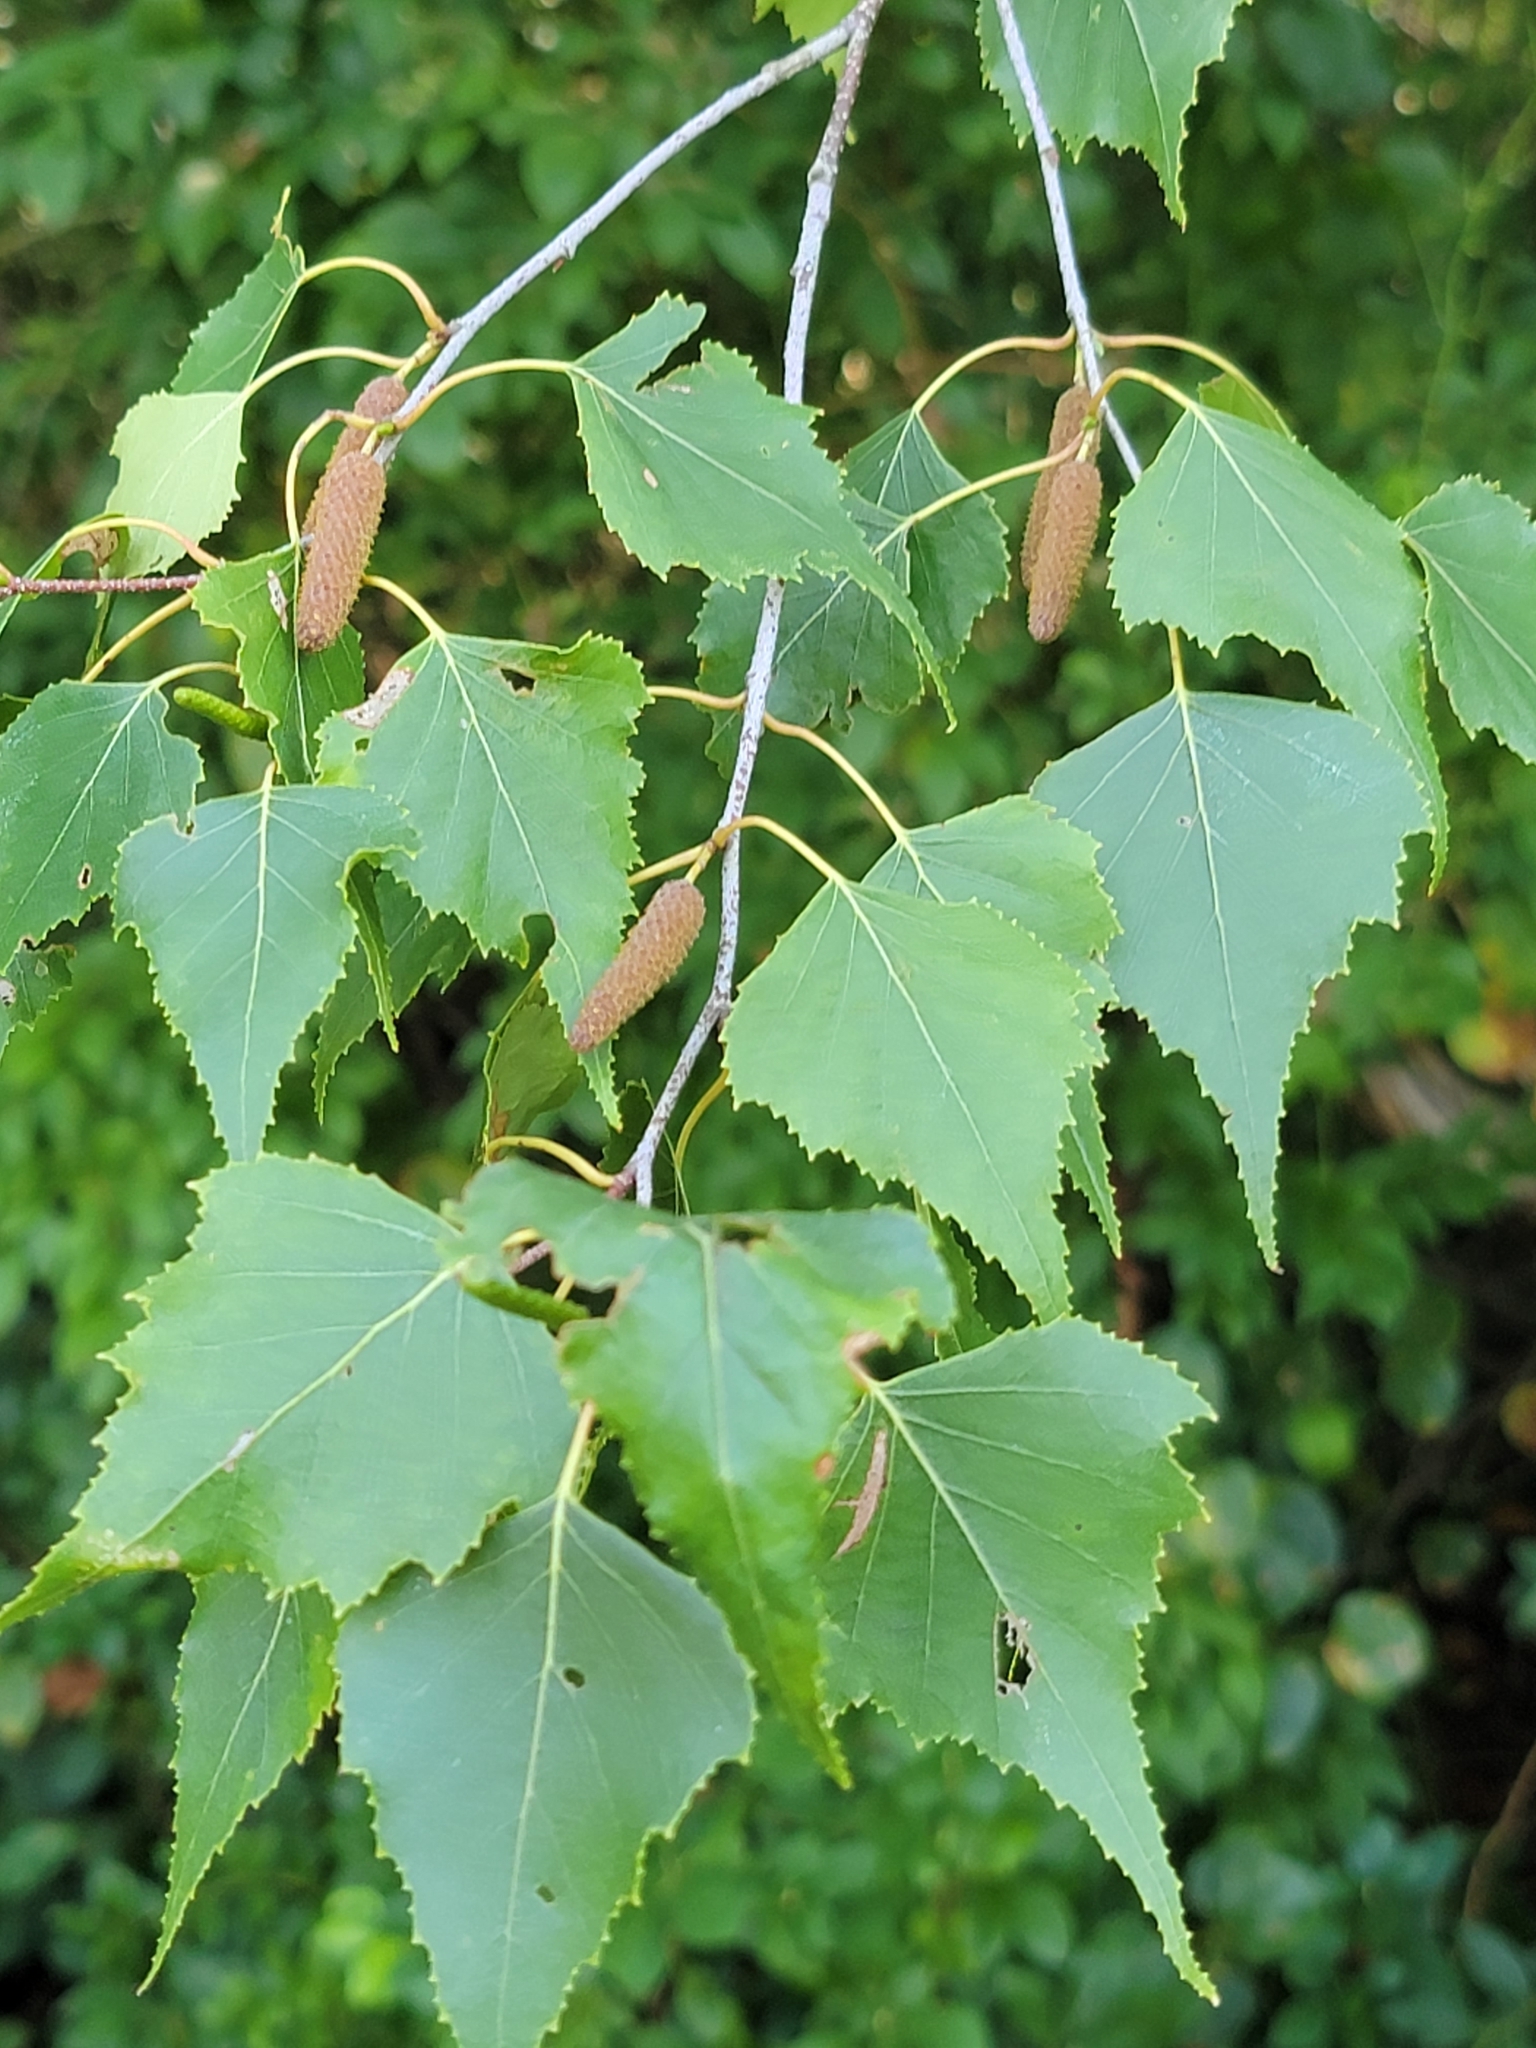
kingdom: Plantae
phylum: Tracheophyta
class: Magnoliopsida
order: Fagales
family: Betulaceae
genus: Betula
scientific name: Betula populifolia
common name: Fire birch
